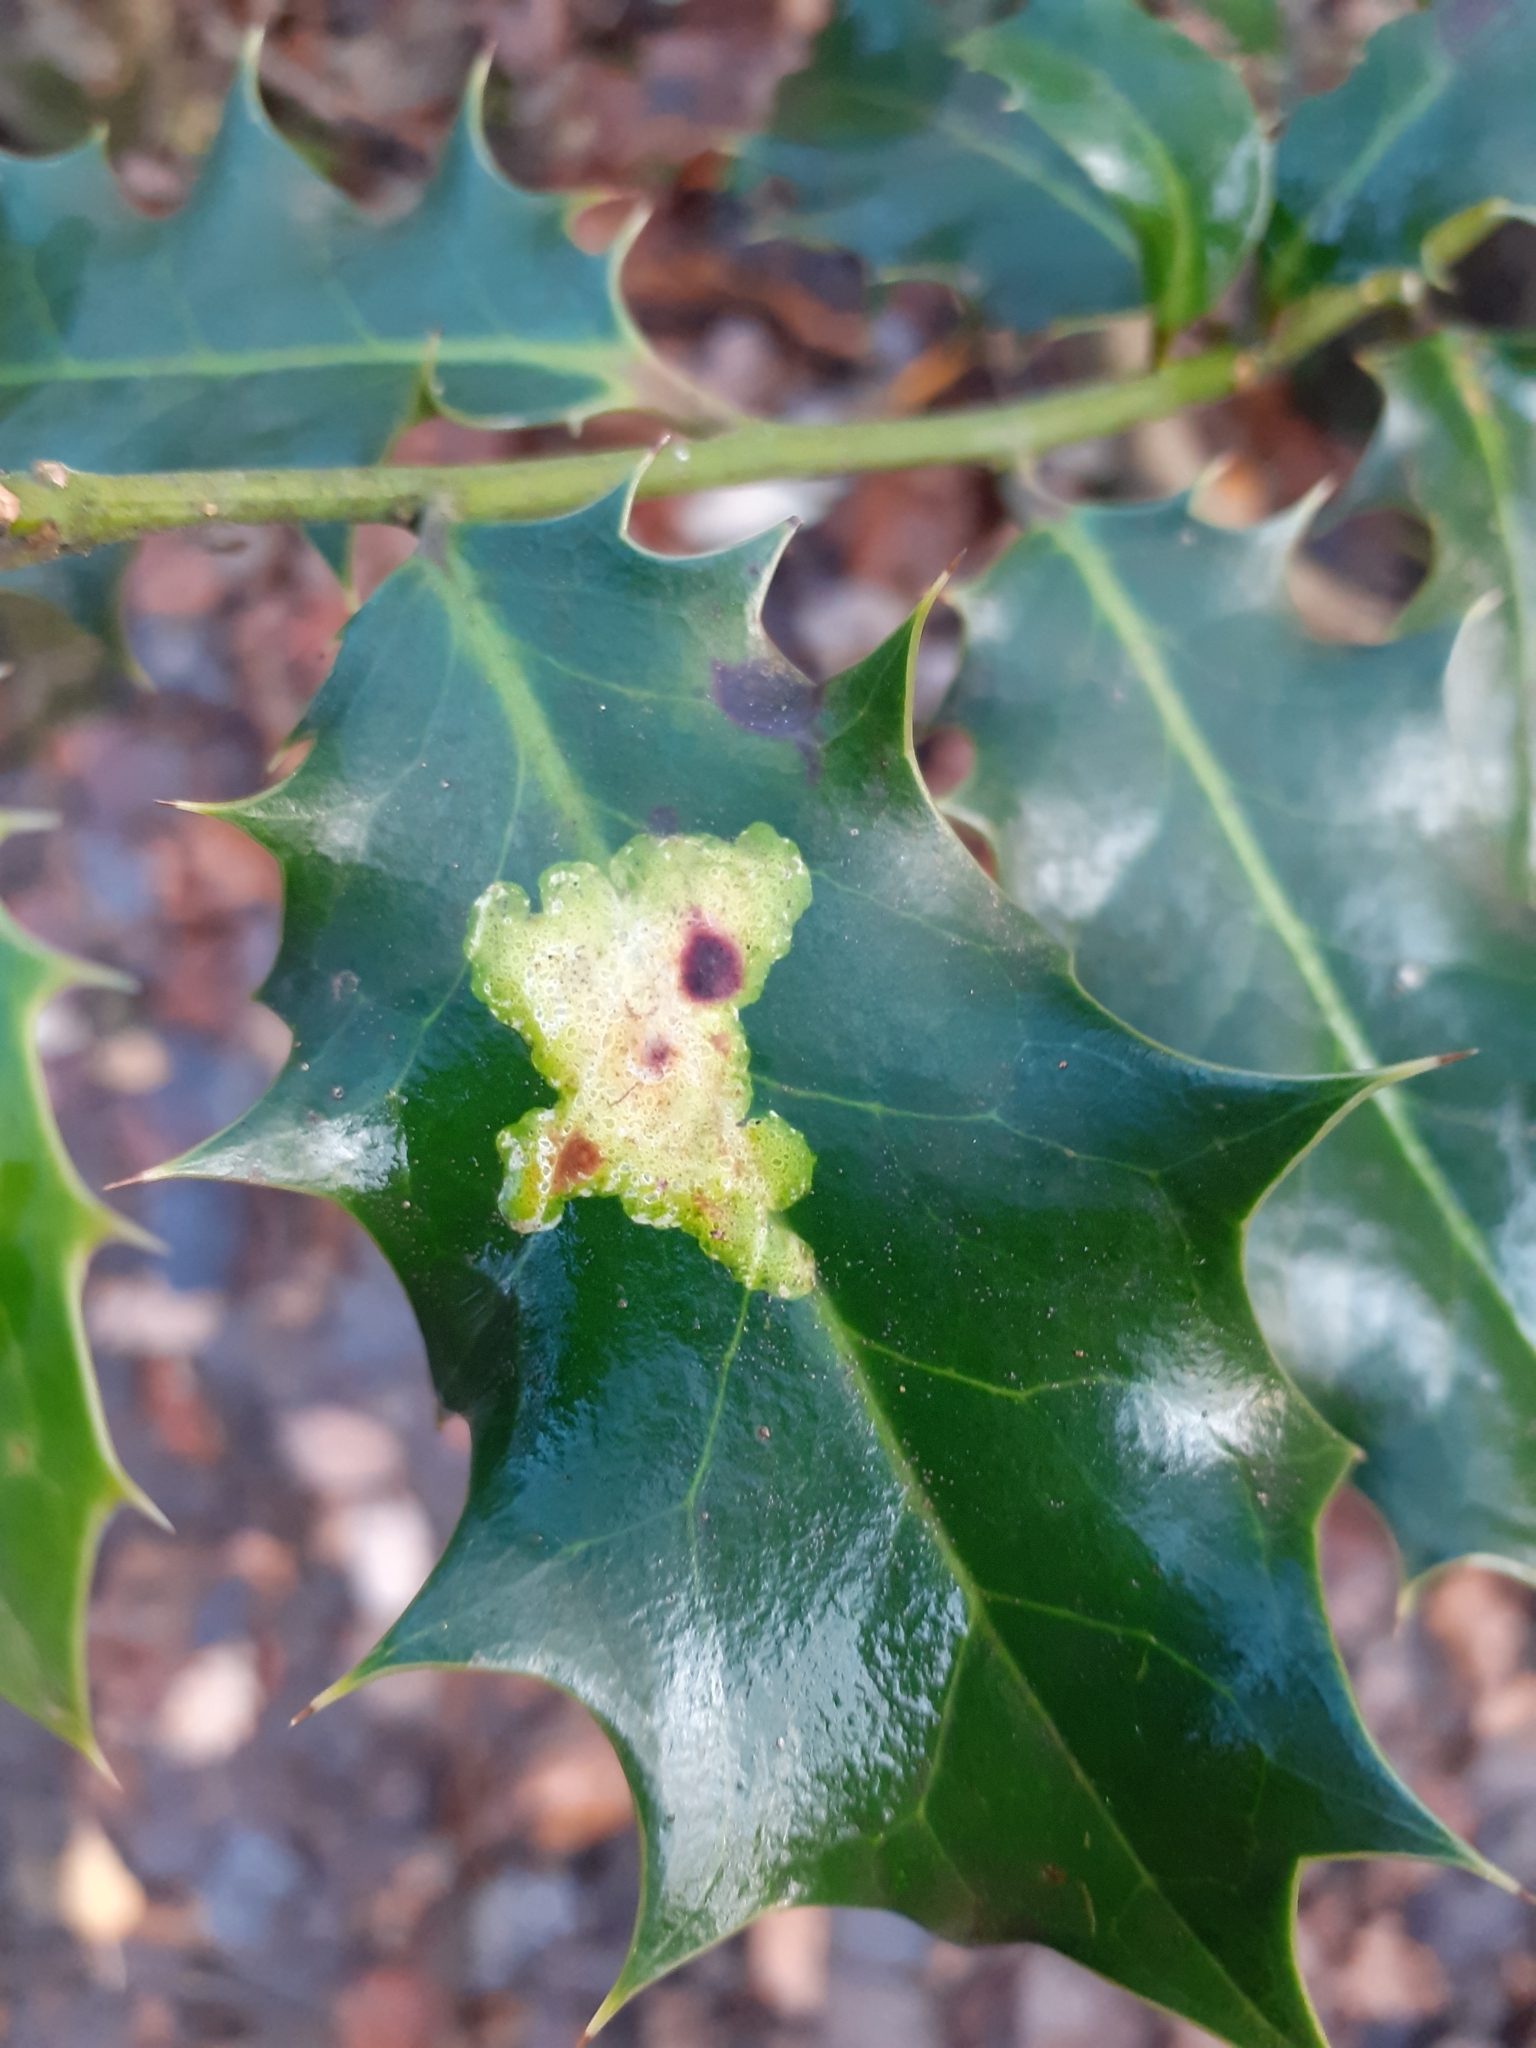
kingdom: Animalia
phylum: Arthropoda
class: Insecta
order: Diptera
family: Agromyzidae
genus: Phytomyza
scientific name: Phytomyza ilicis
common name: Holly leafminer
